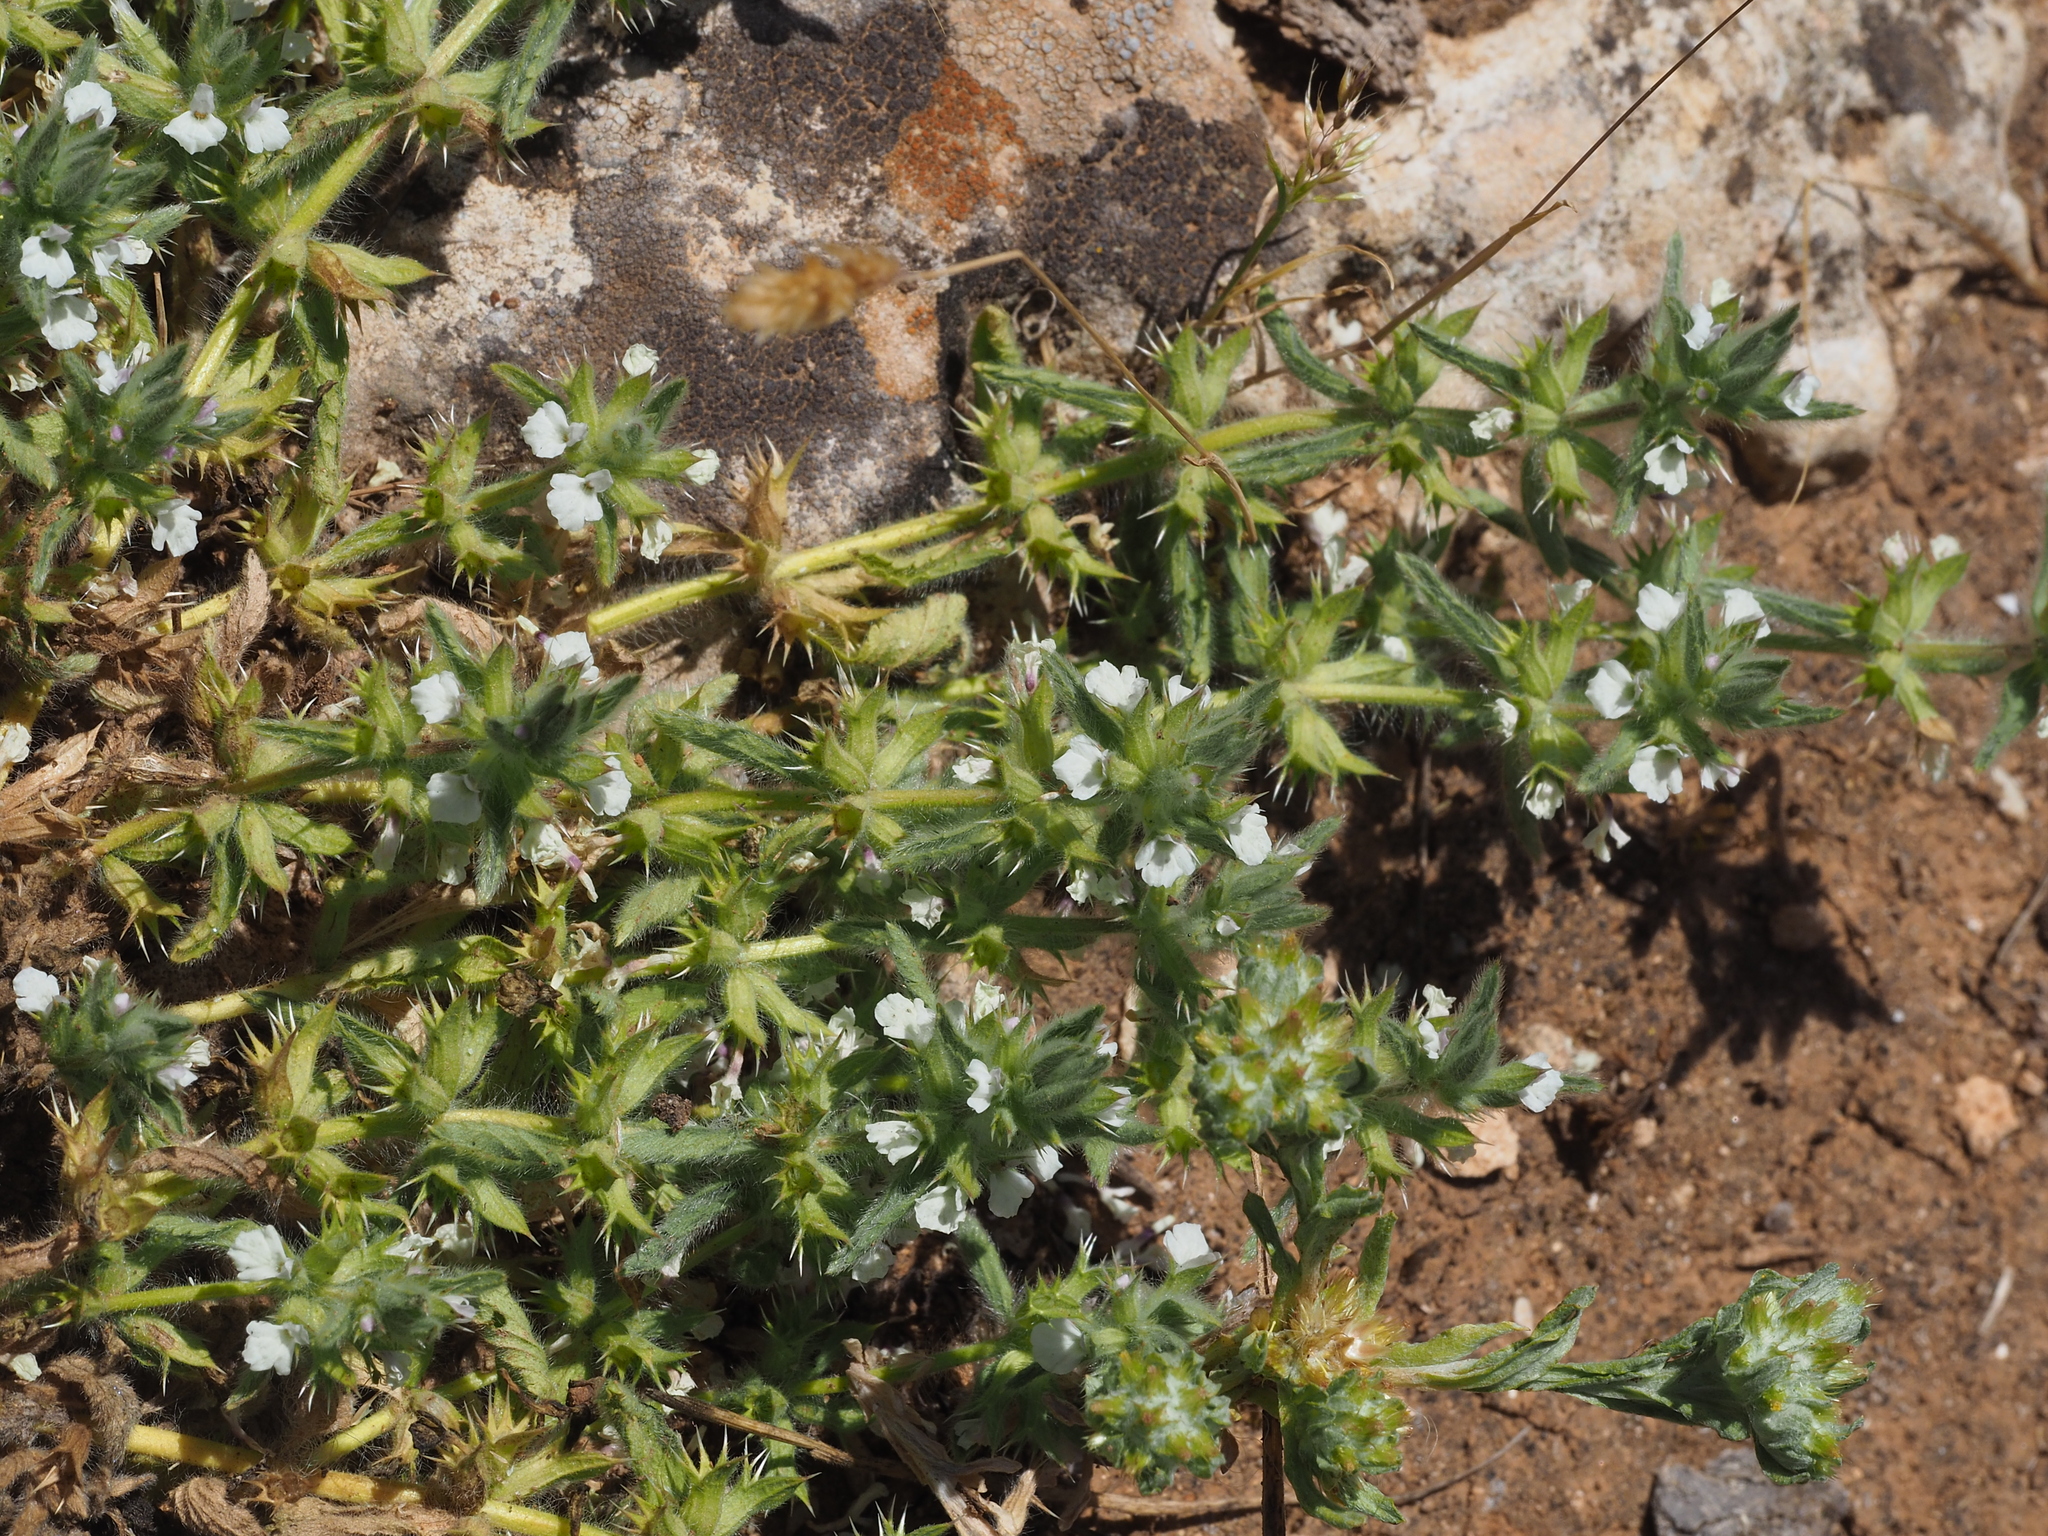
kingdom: Plantae
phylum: Tracheophyta
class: Magnoliopsida
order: Lamiales
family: Lamiaceae
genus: Sideritis
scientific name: Sideritis romana
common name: Simplebeak ironwort
